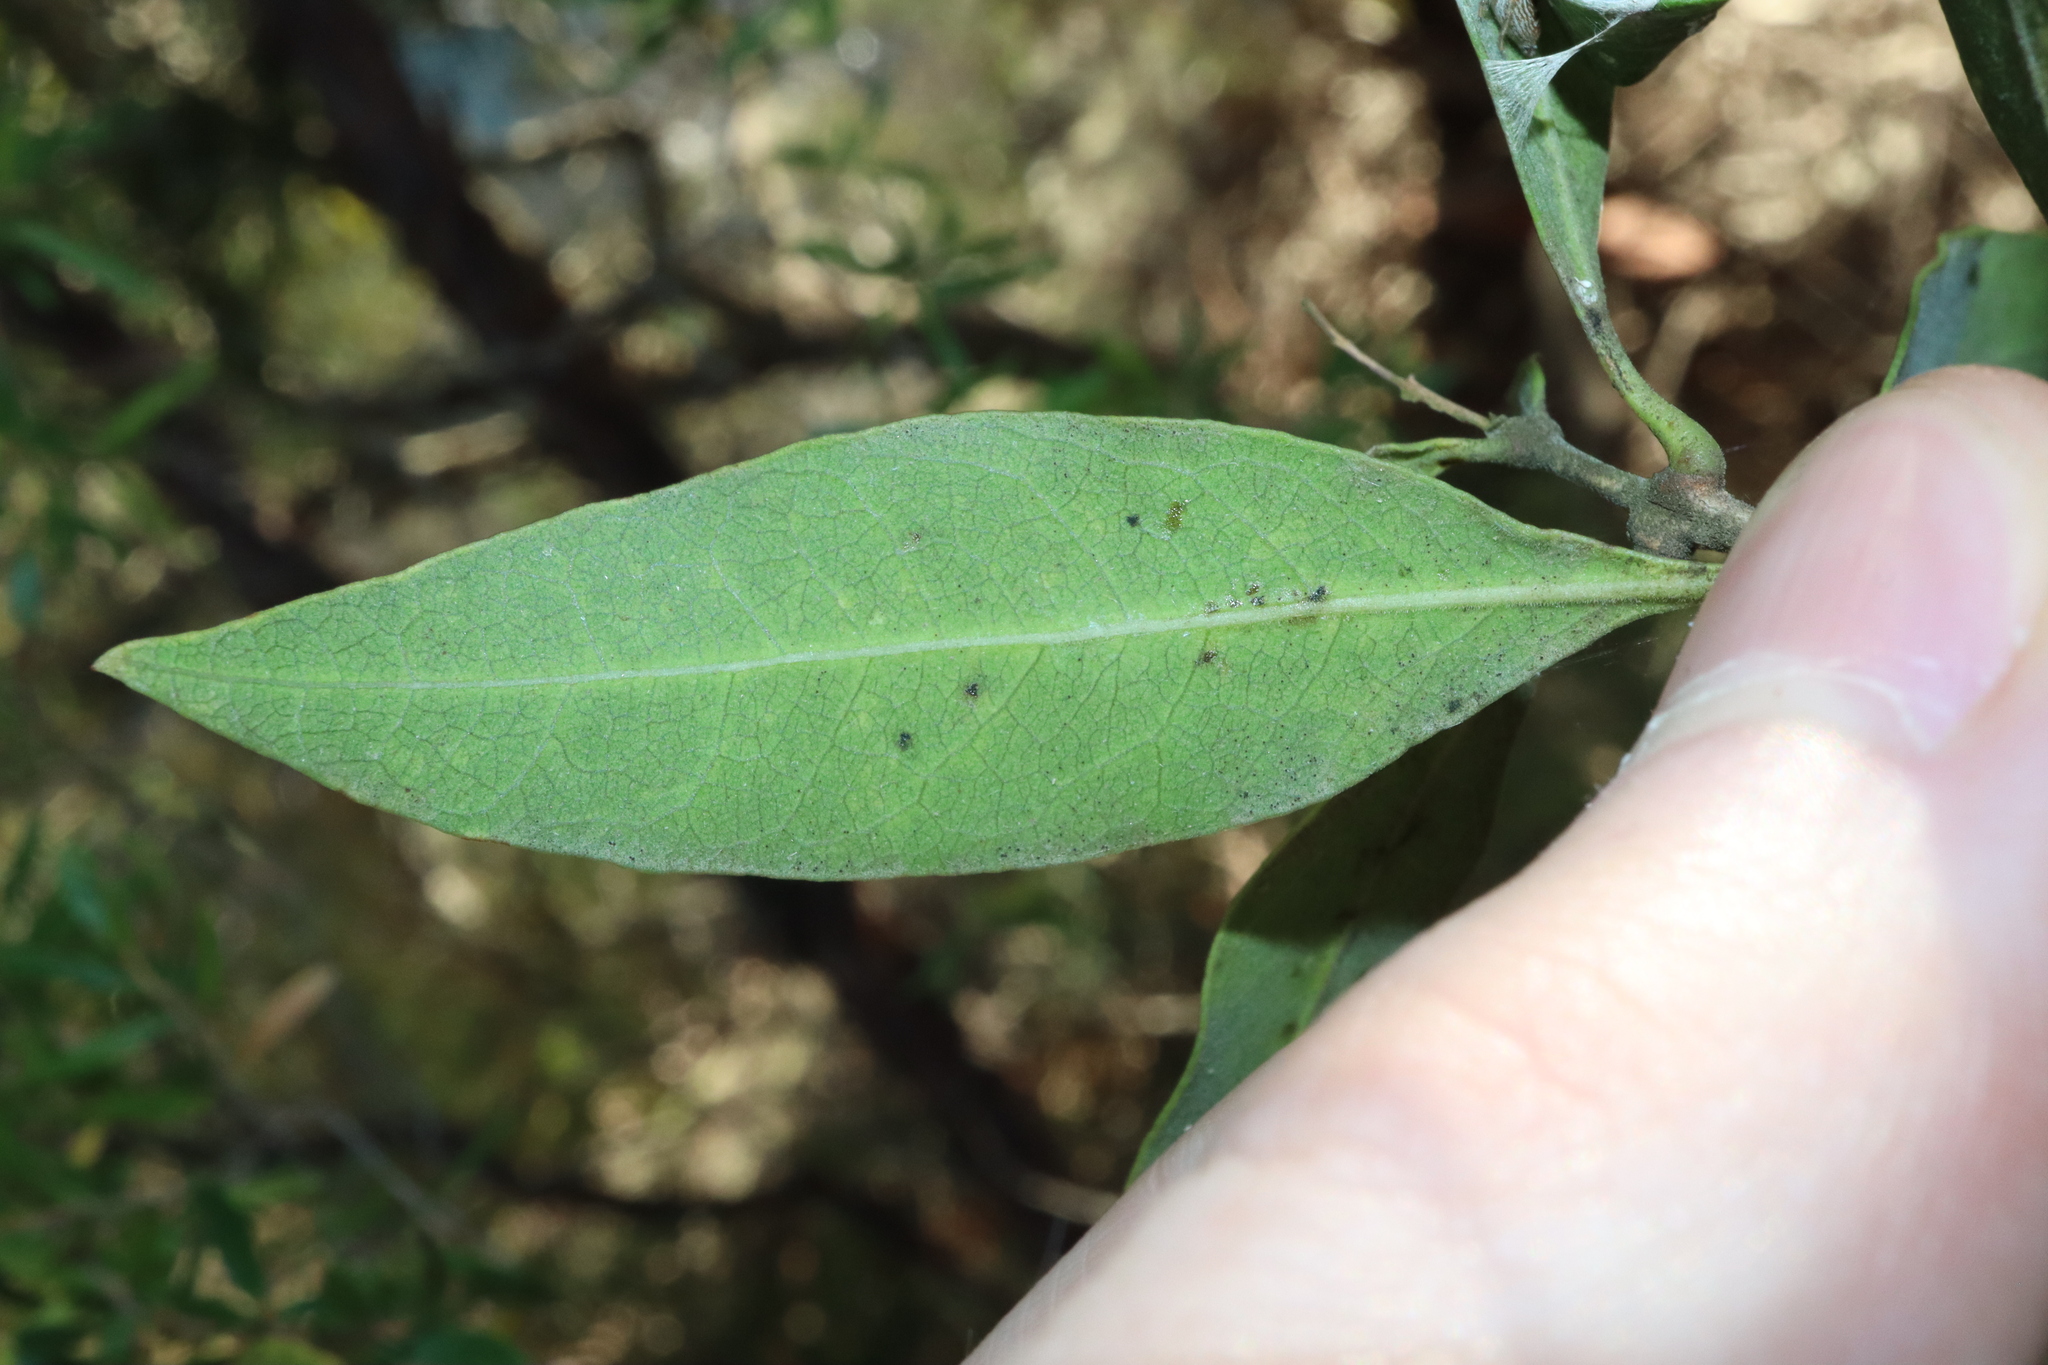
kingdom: Plantae
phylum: Tracheophyta
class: Magnoliopsida
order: Lamiales
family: Oleaceae
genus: Notelaea
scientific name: Notelaea longifolia
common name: Large mock olive
